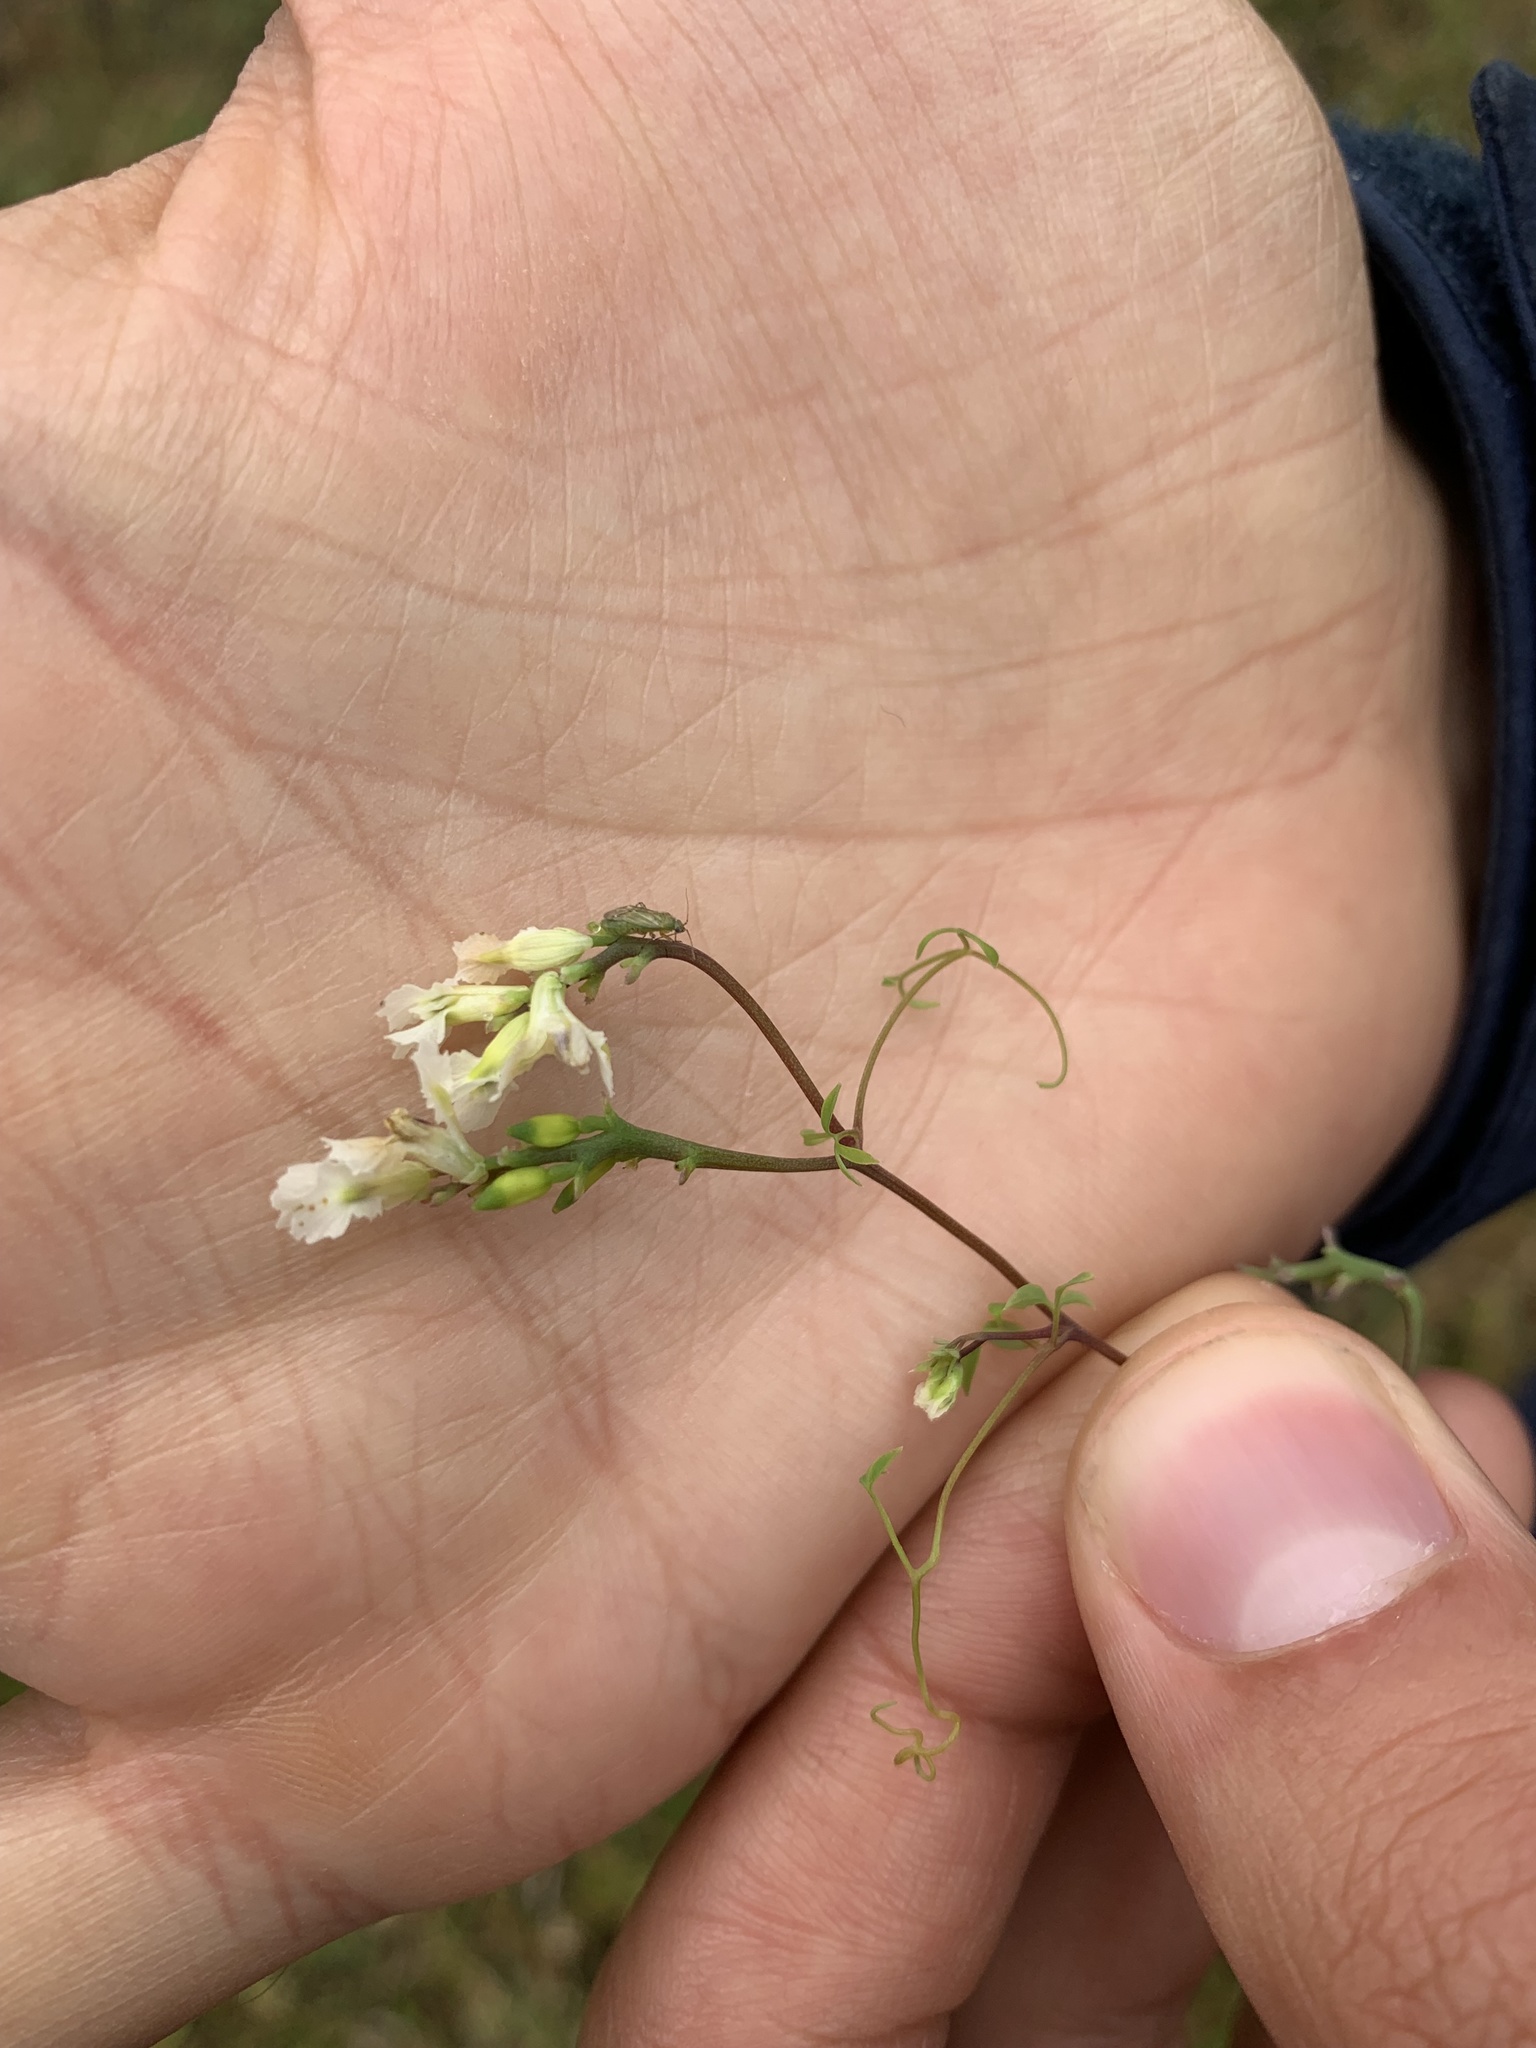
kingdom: Plantae
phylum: Tracheophyta
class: Magnoliopsida
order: Ranunculales
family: Papaveraceae
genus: Ceratocapnos
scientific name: Ceratocapnos claviculata
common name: Climbing corydalis
